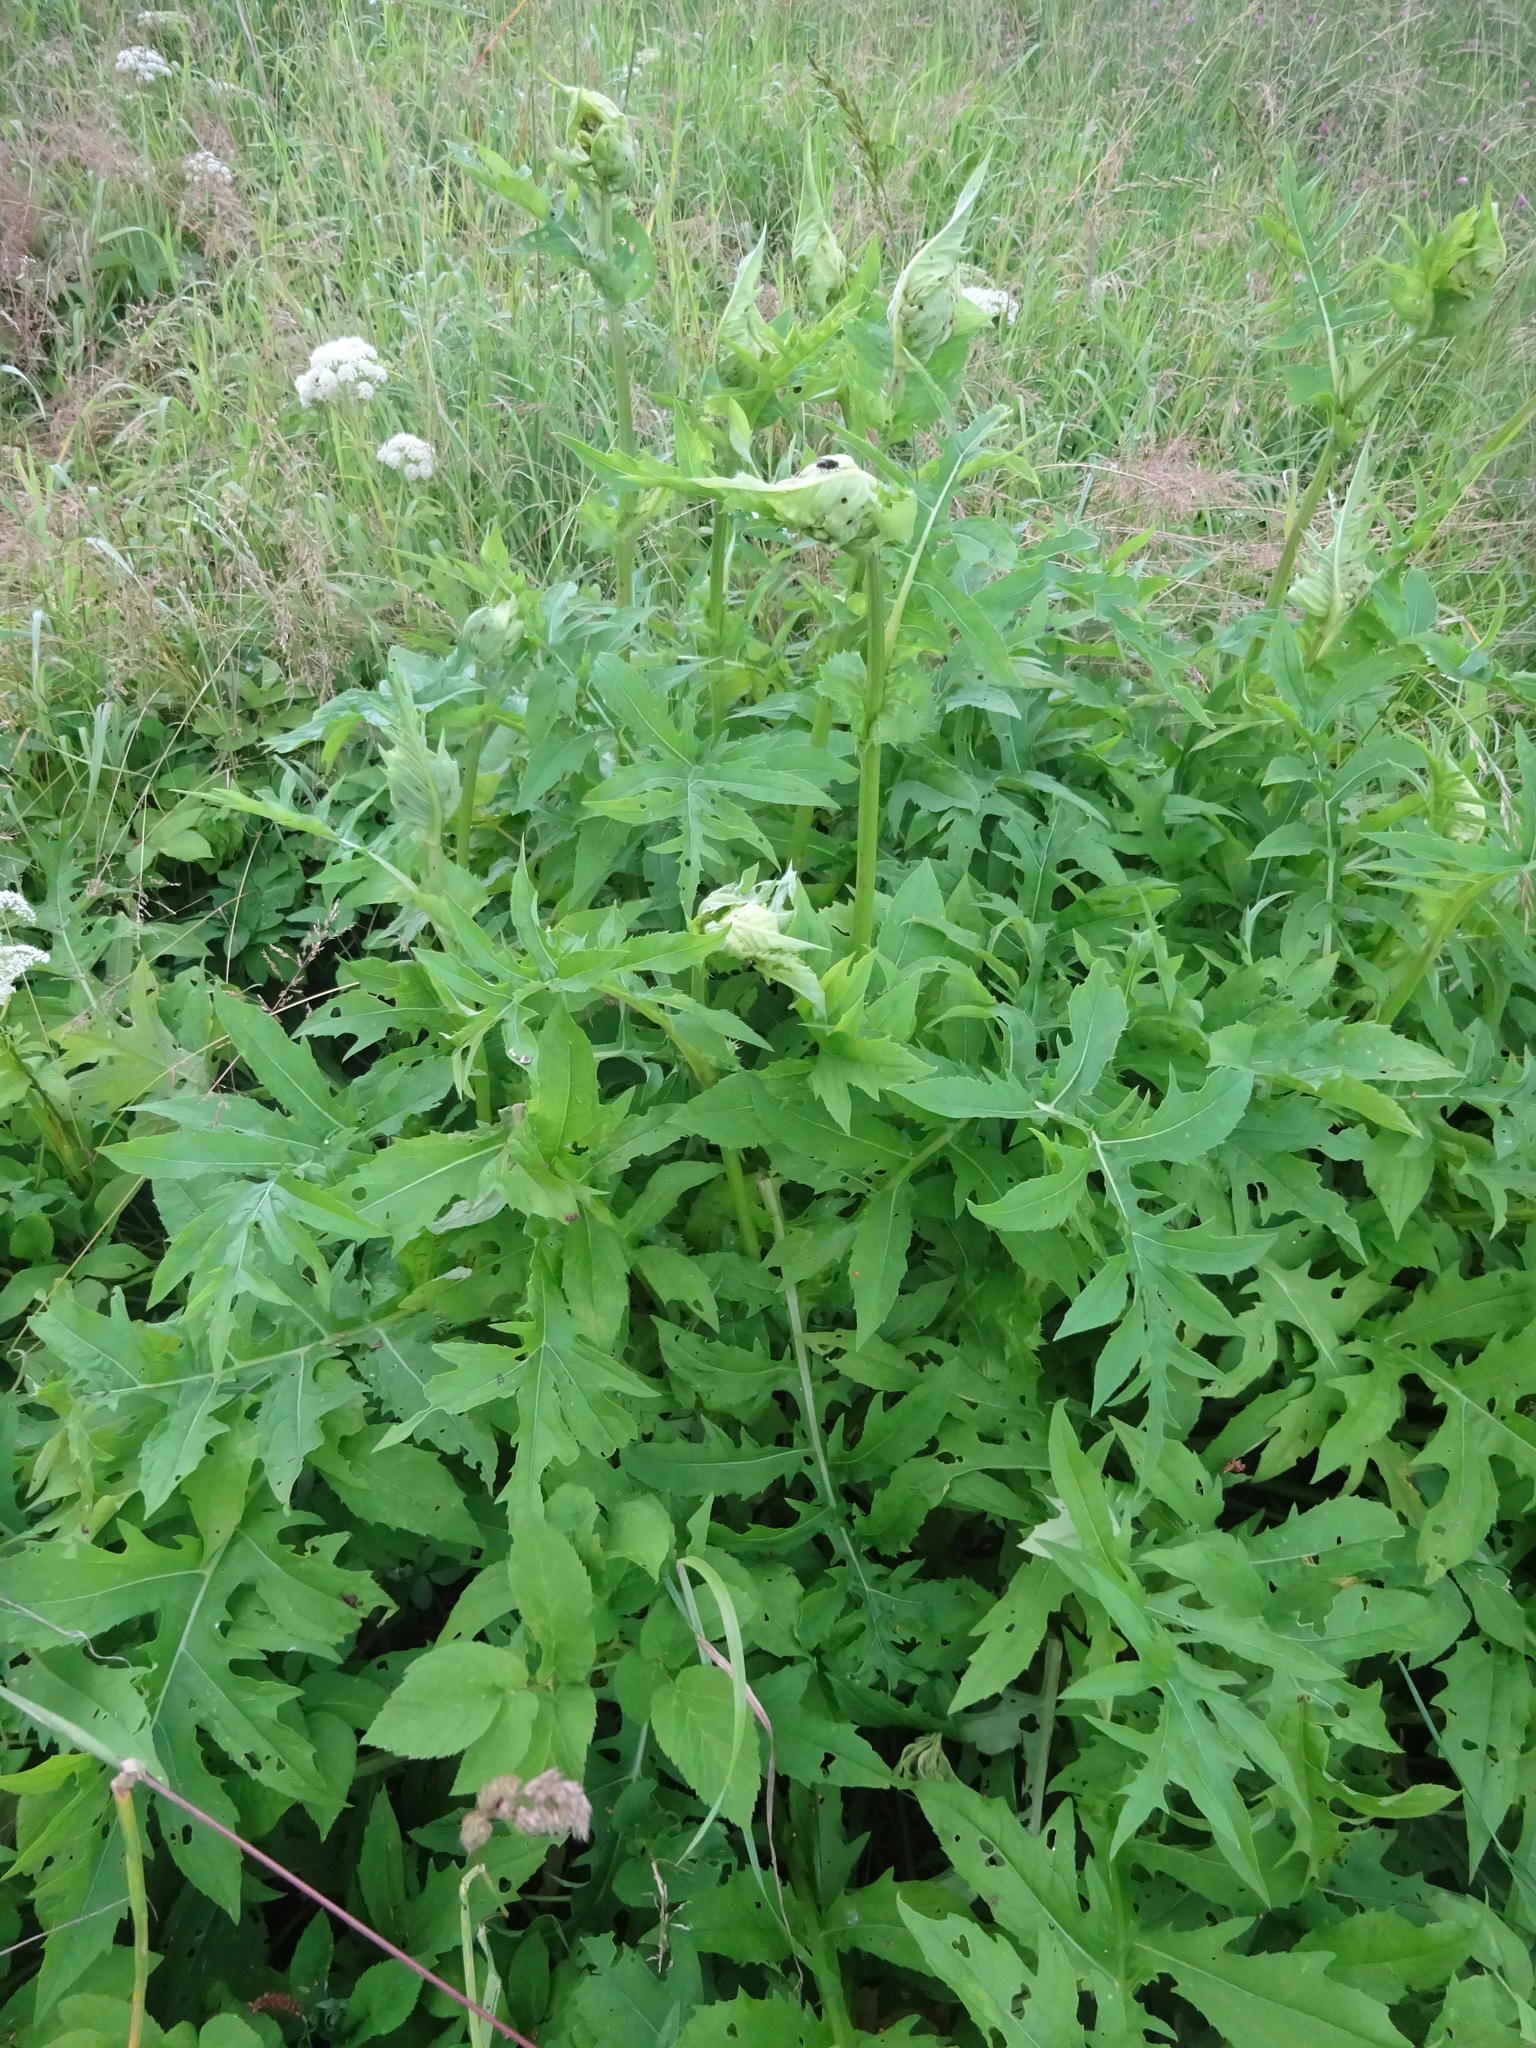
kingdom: Plantae
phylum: Tracheophyta
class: Magnoliopsida
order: Asterales
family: Asteraceae
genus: Cirsium
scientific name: Cirsium oleraceum
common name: Cabbage thistle
